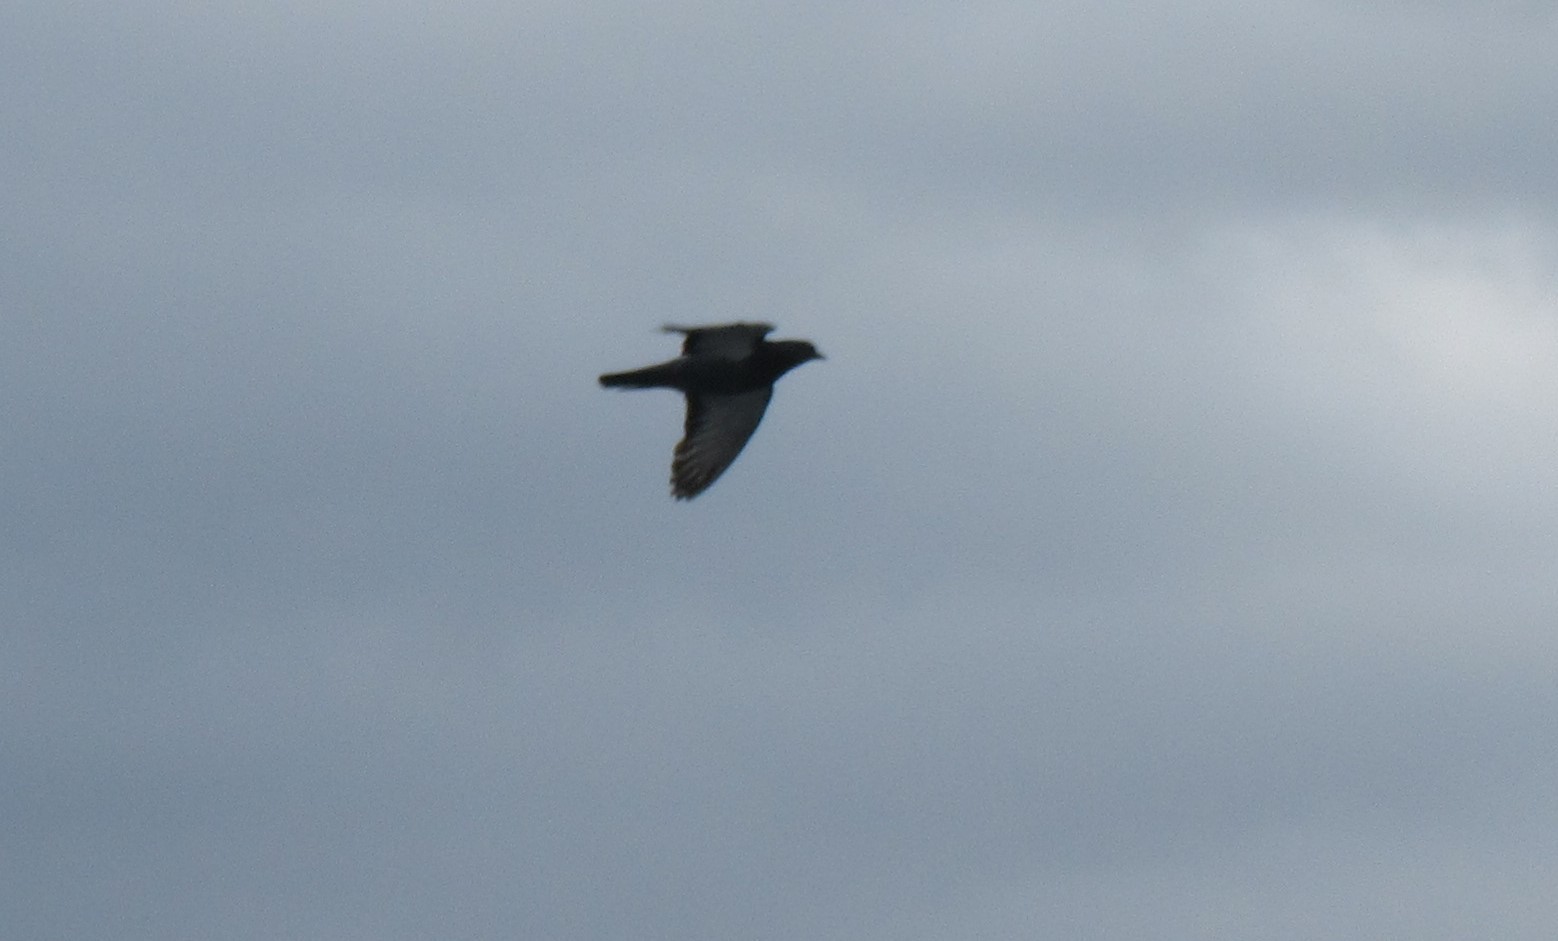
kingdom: Animalia
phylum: Chordata
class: Aves
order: Columbiformes
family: Columbidae
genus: Columba
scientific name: Columba livia
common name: Rock pigeon
